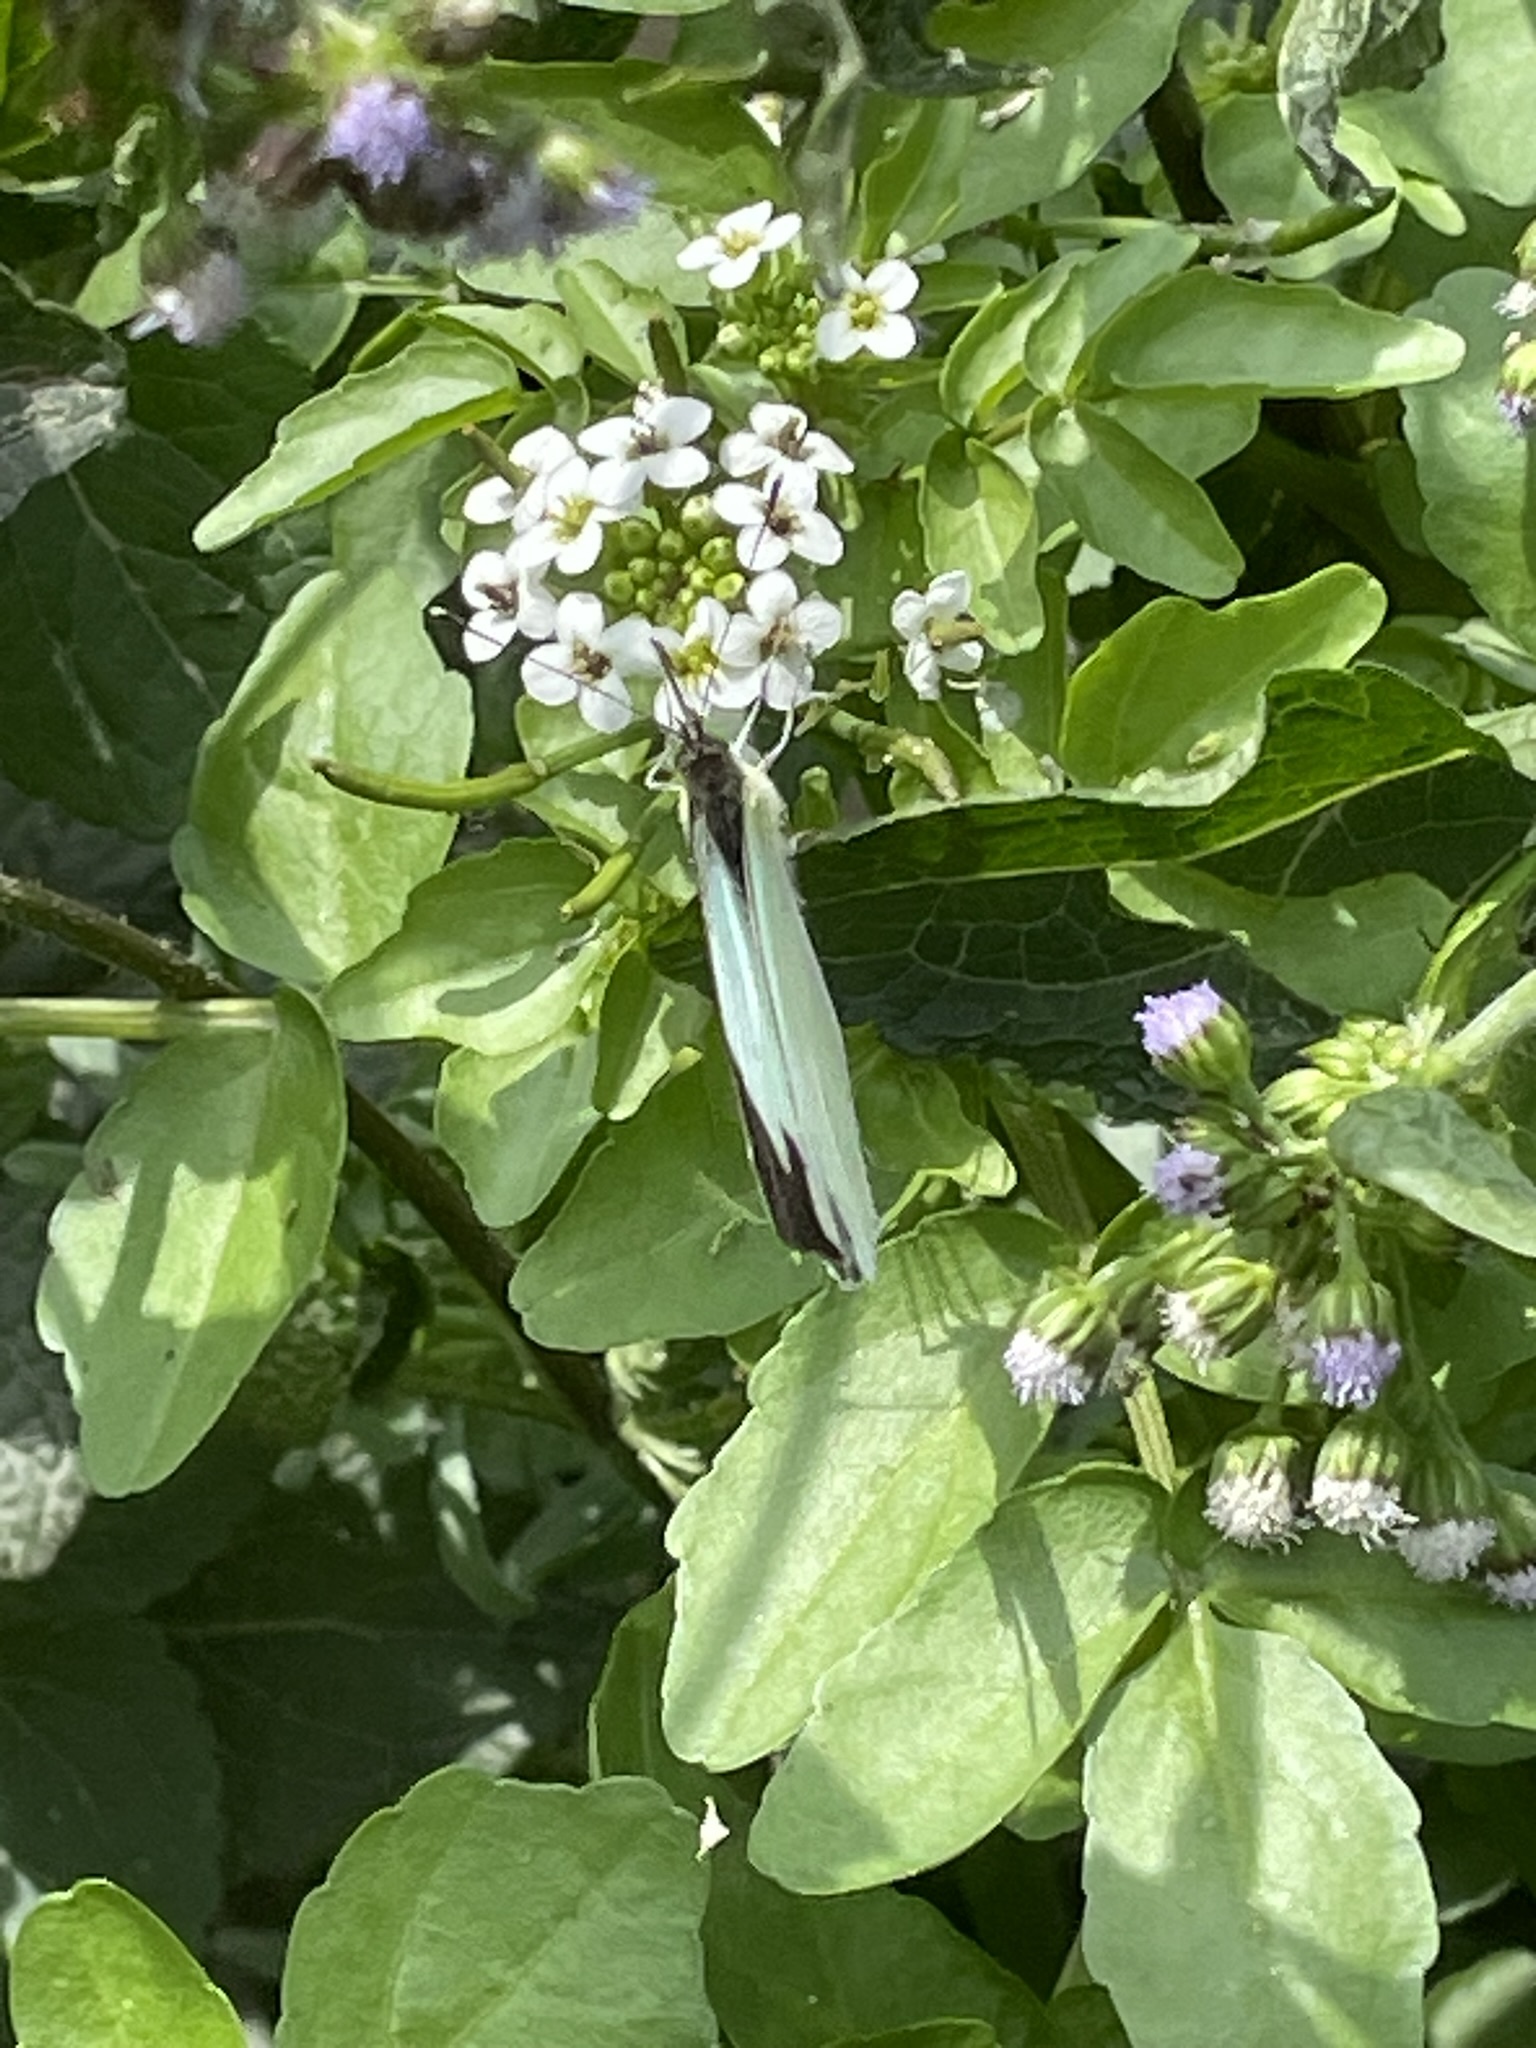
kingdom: Animalia
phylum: Arthropoda
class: Insecta
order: Lepidoptera
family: Pieridae
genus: Leptophobia
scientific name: Leptophobia aripa
